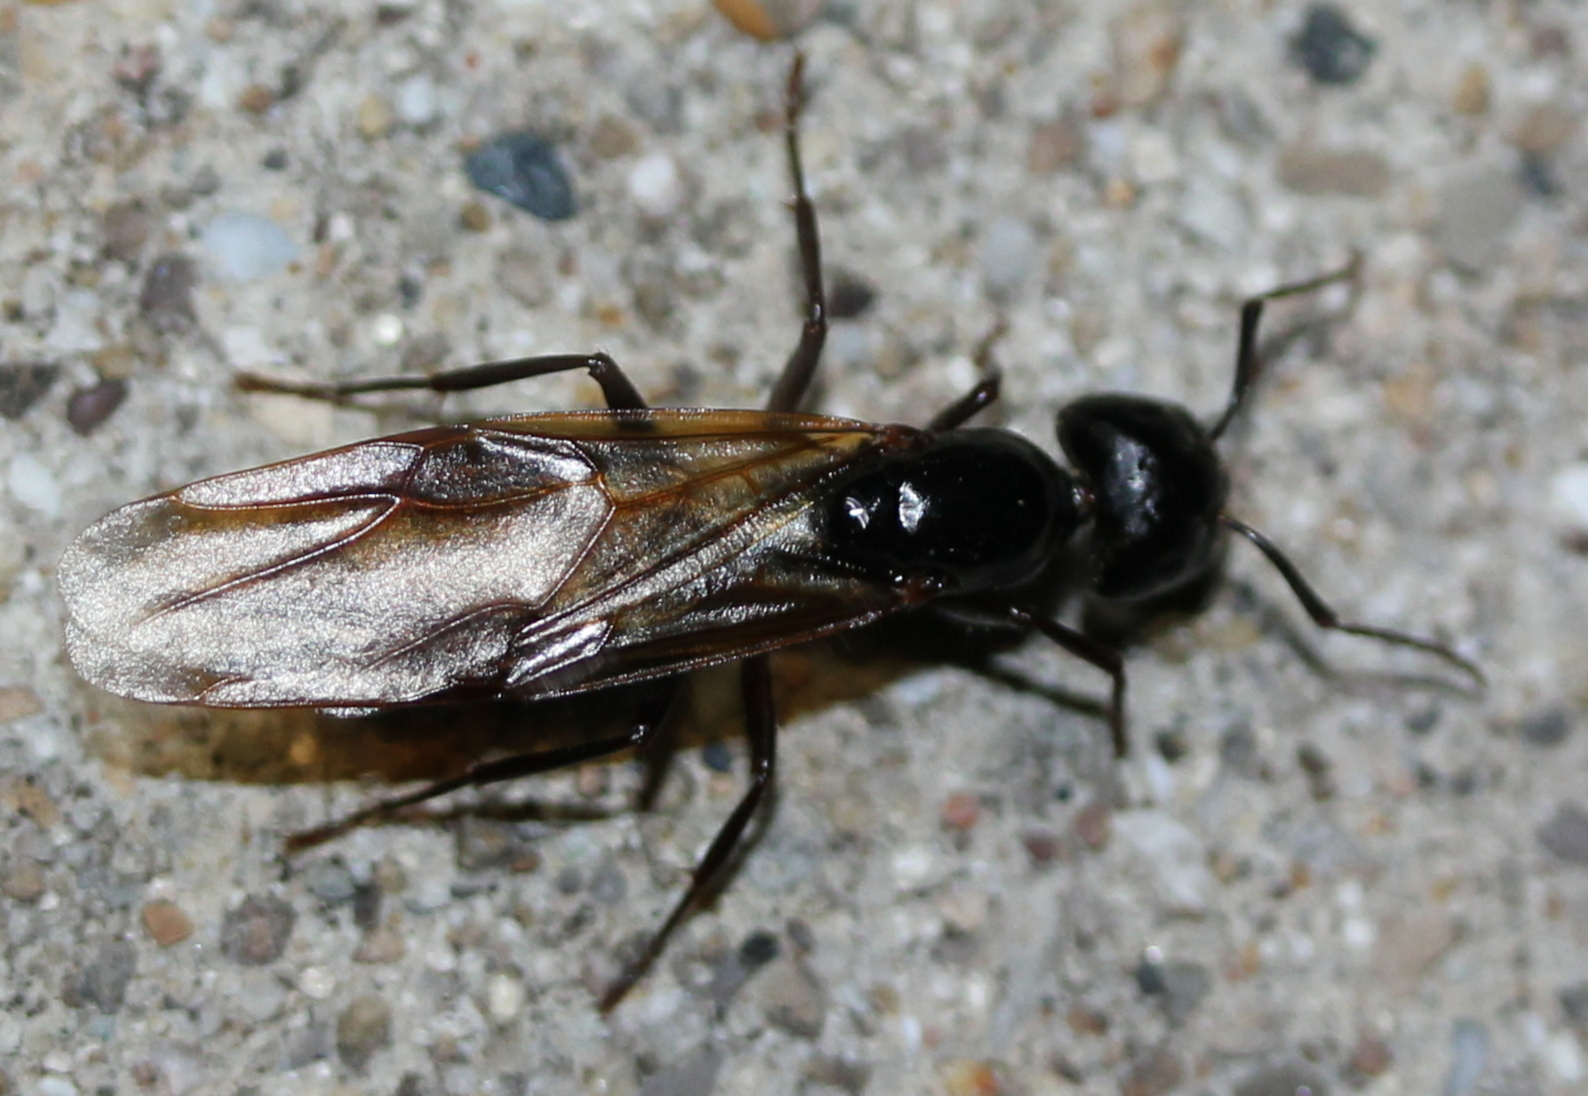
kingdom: Animalia
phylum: Arthropoda
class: Insecta
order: Hymenoptera
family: Formicidae
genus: Camponotus
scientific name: Camponotus pennsylvanicus
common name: Black carpenter ant
